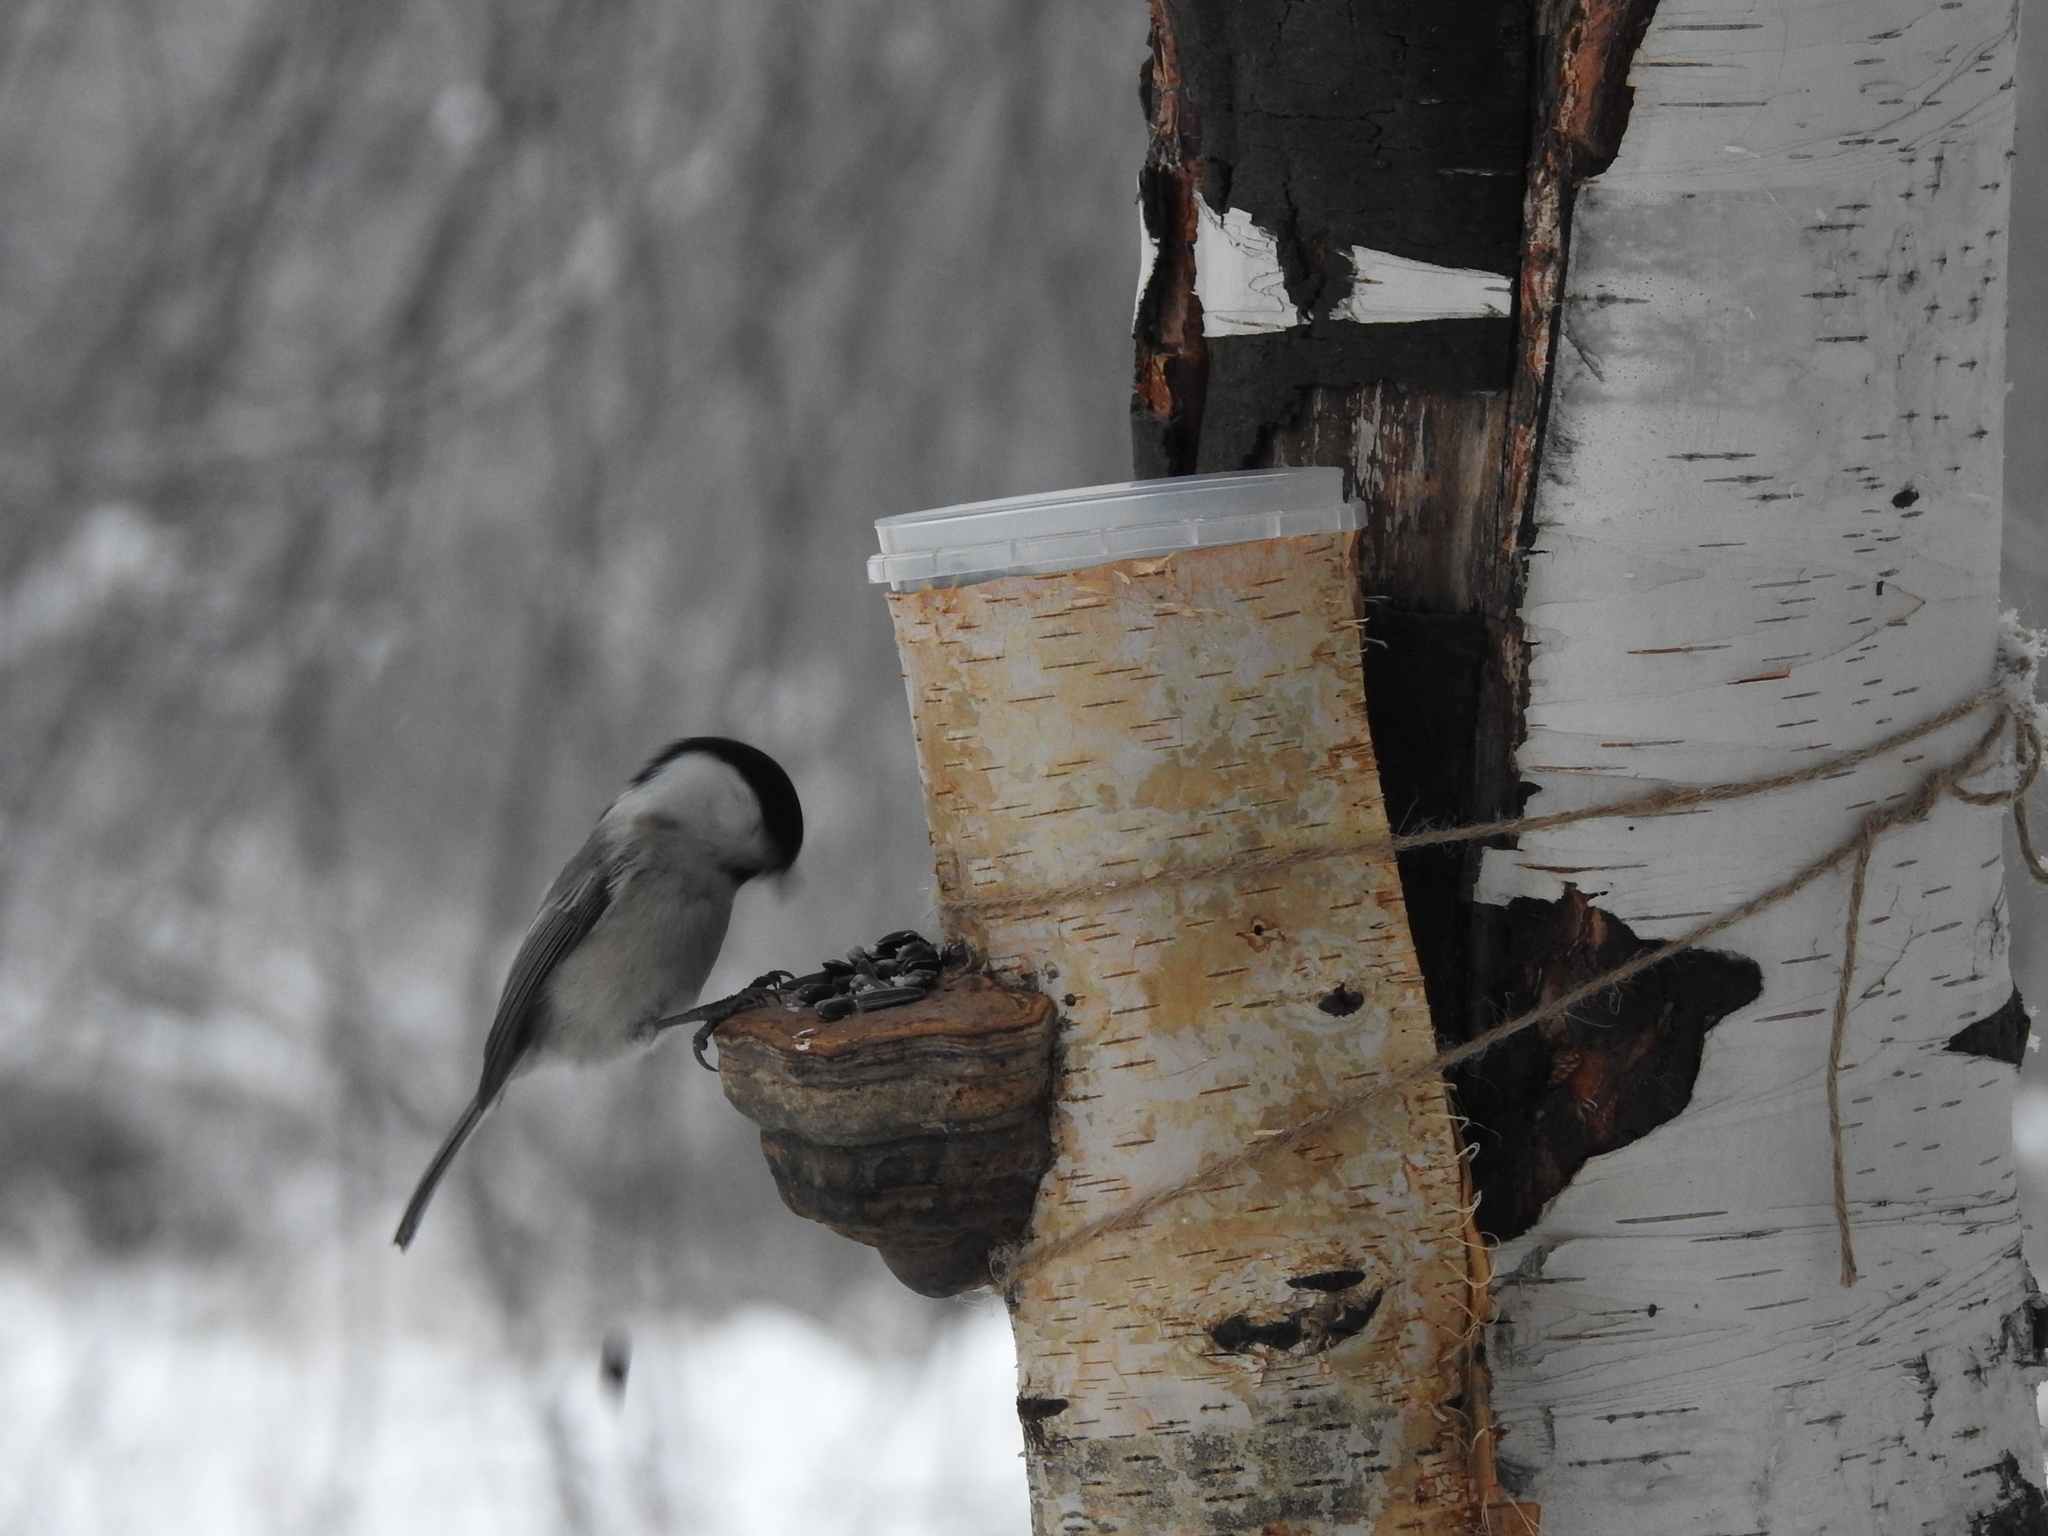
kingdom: Animalia
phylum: Chordata
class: Aves
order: Passeriformes
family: Paridae
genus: Poecile
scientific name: Poecile montanus
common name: Willow tit
